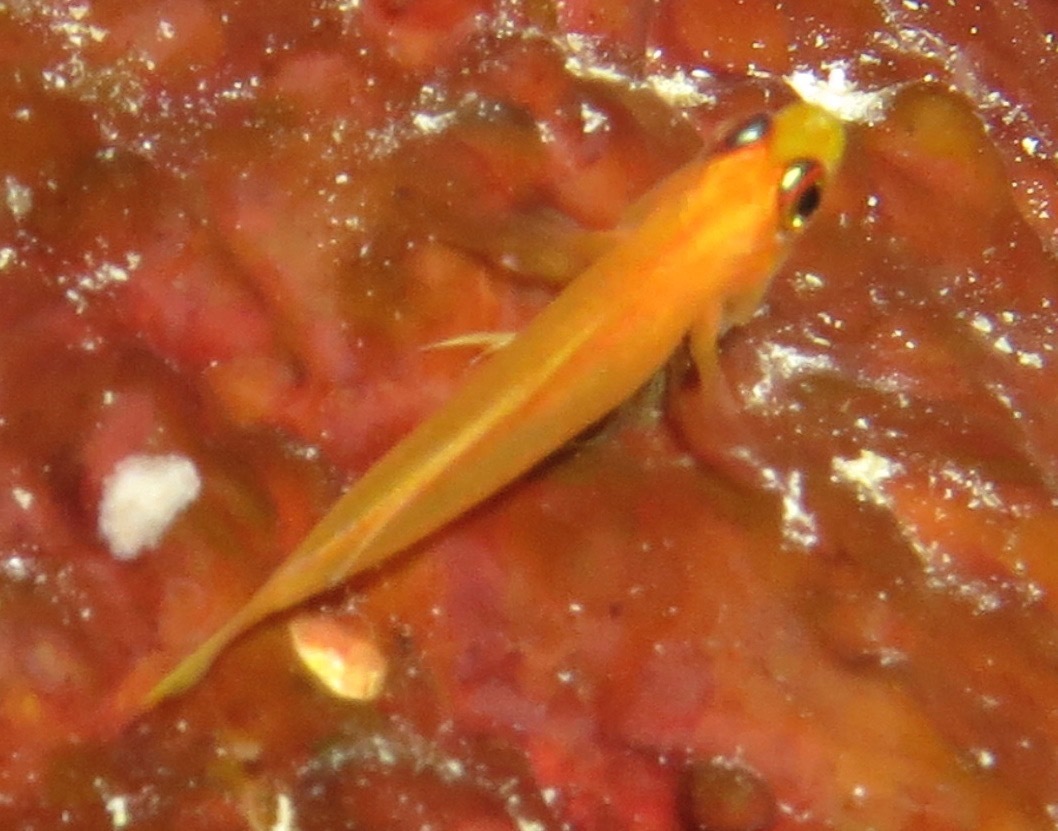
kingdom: Animalia
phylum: Chordata
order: Perciformes
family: Gobiidae
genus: Trimma
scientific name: Trimma anaima
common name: Pale dwarfgoby
